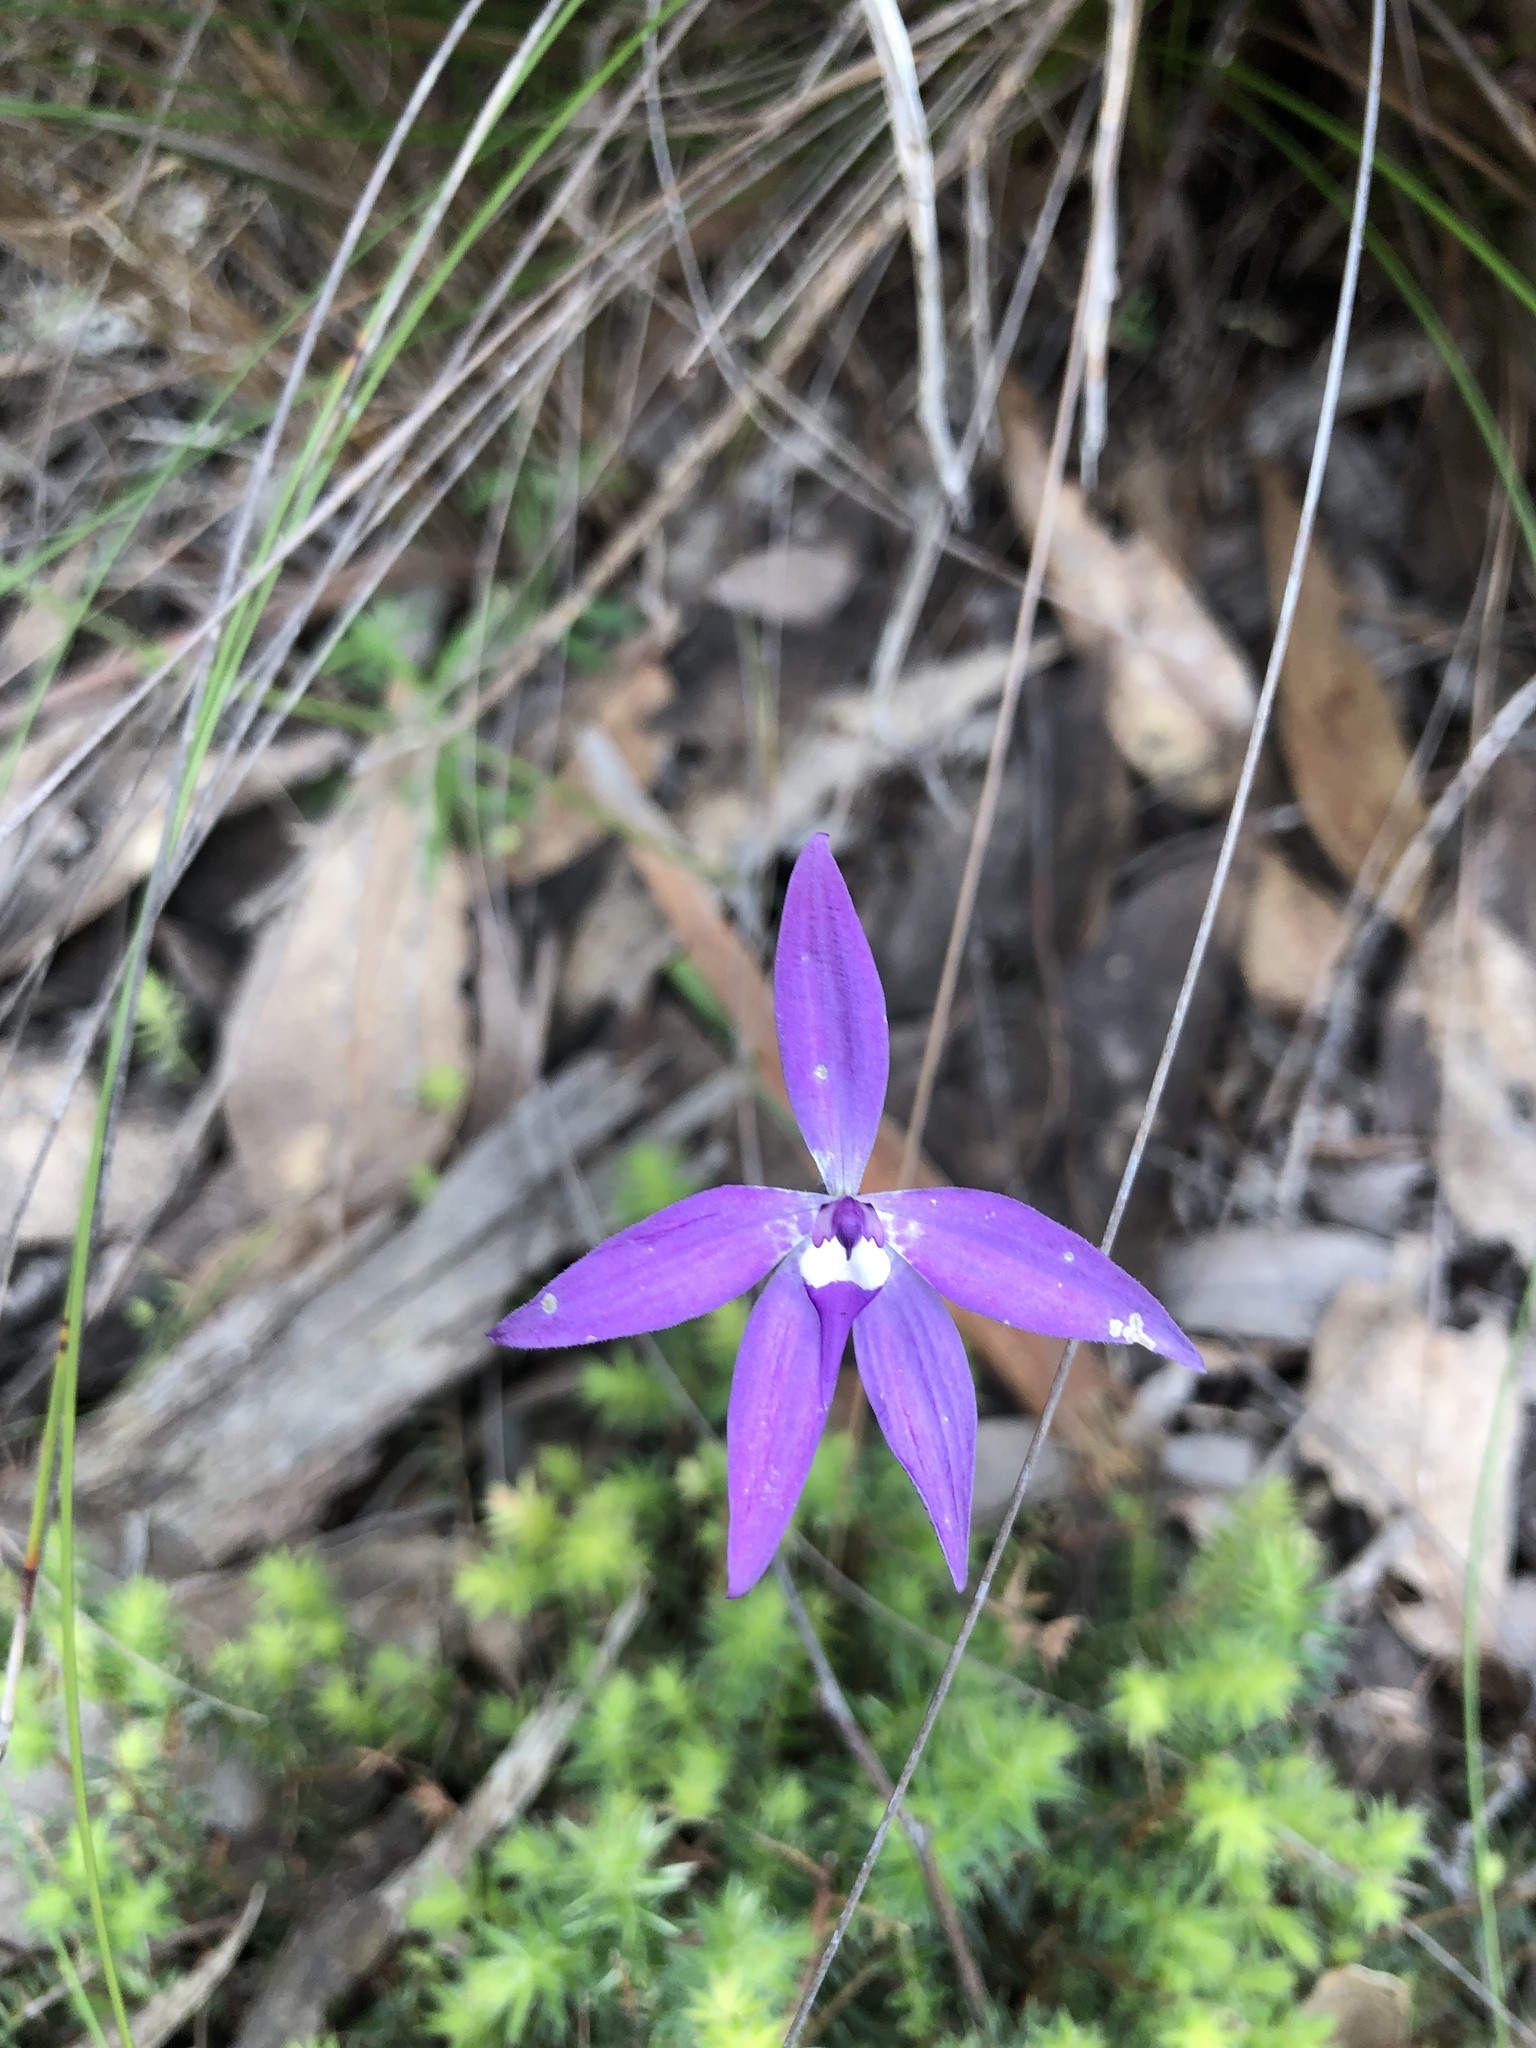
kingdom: Plantae
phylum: Tracheophyta
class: Liliopsida
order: Asparagales
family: Orchidaceae
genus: Caladenia
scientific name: Caladenia major
